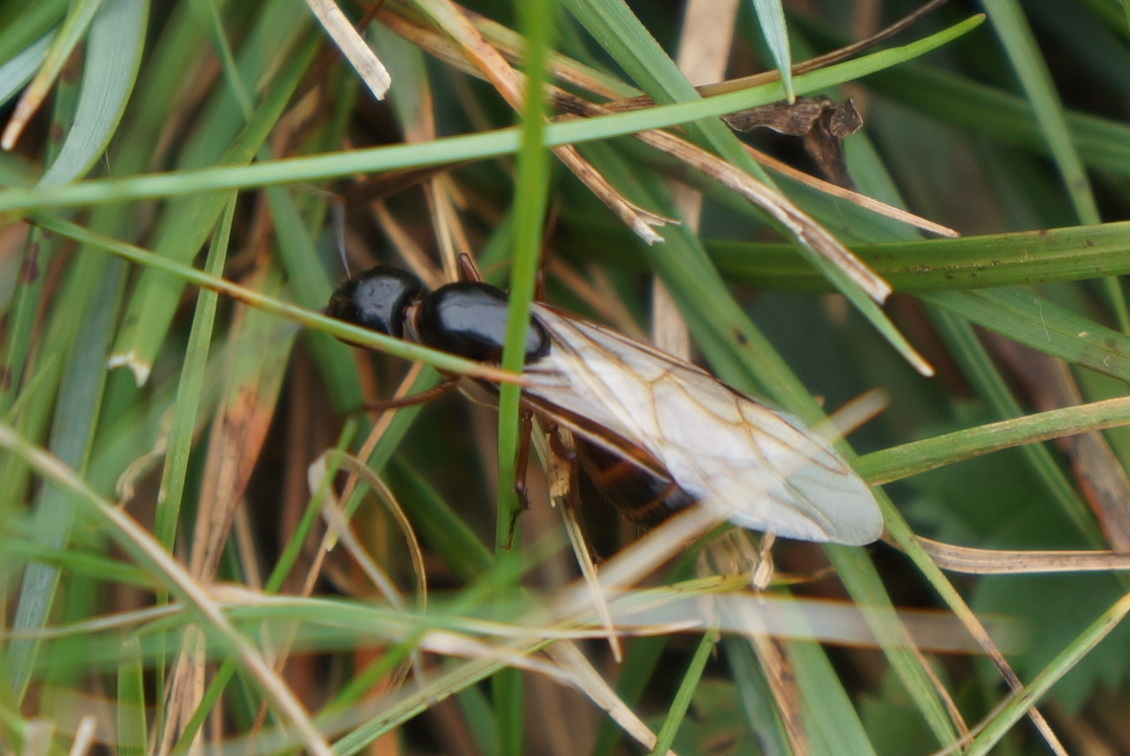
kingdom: Animalia
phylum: Arthropoda
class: Insecta
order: Hymenoptera
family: Formicidae
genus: Camponotus
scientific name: Camponotus americanus
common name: American carpenter ant
